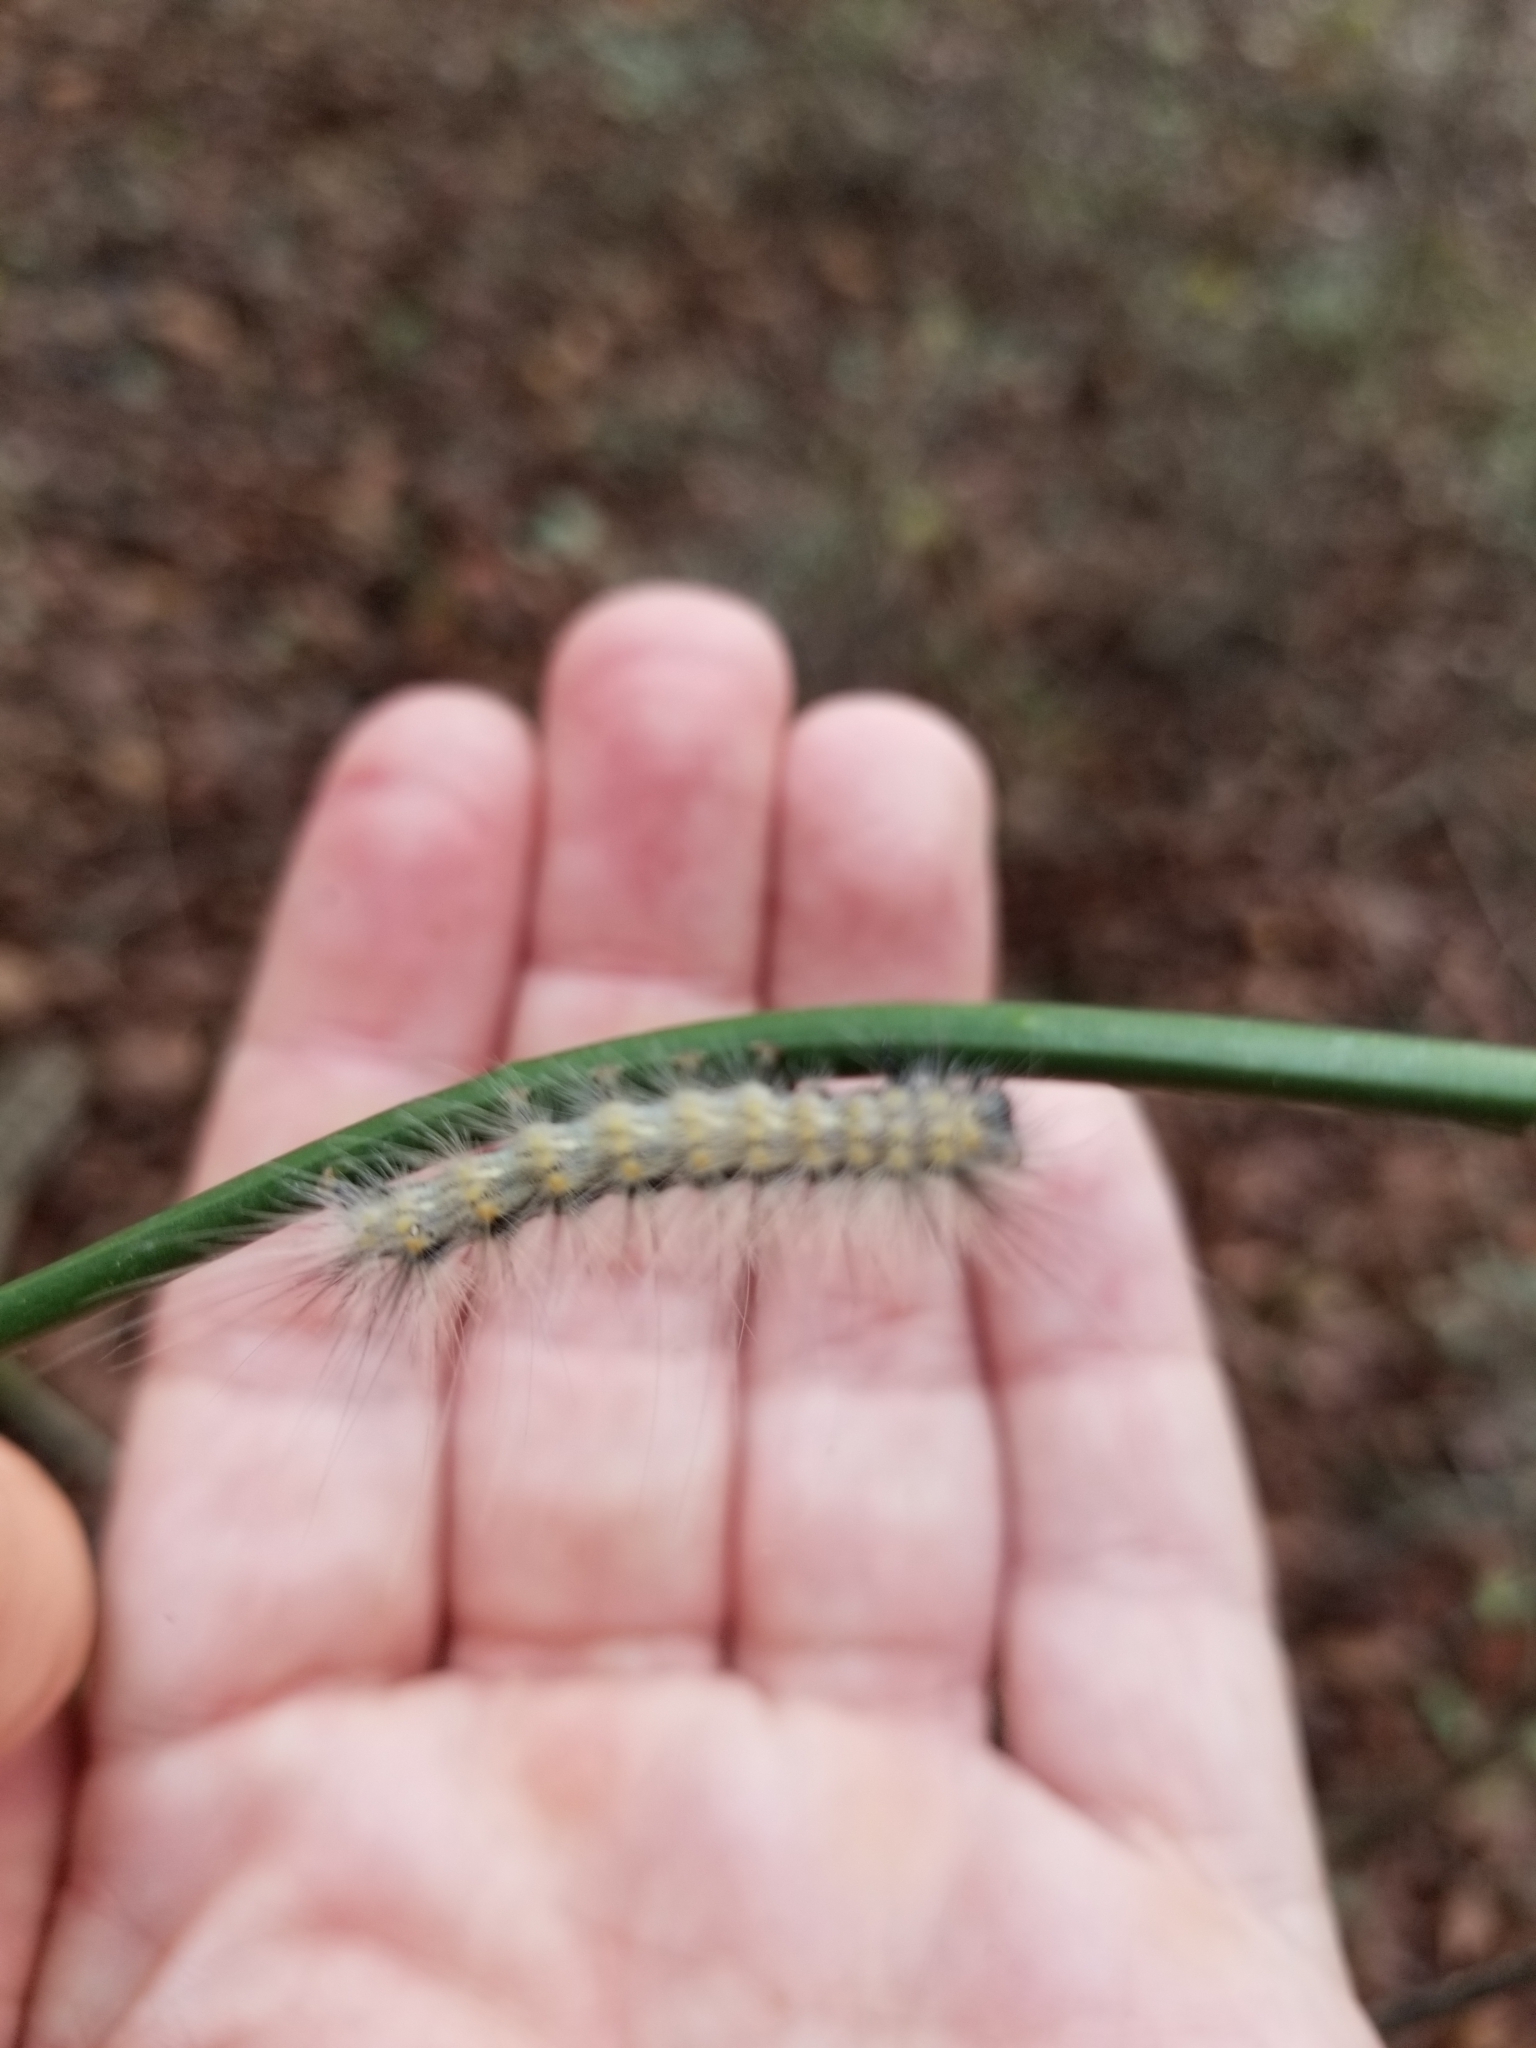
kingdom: Animalia
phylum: Arthropoda
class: Insecta
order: Lepidoptera
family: Erebidae
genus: Hyphantria
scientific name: Hyphantria cunea
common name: American white moth
